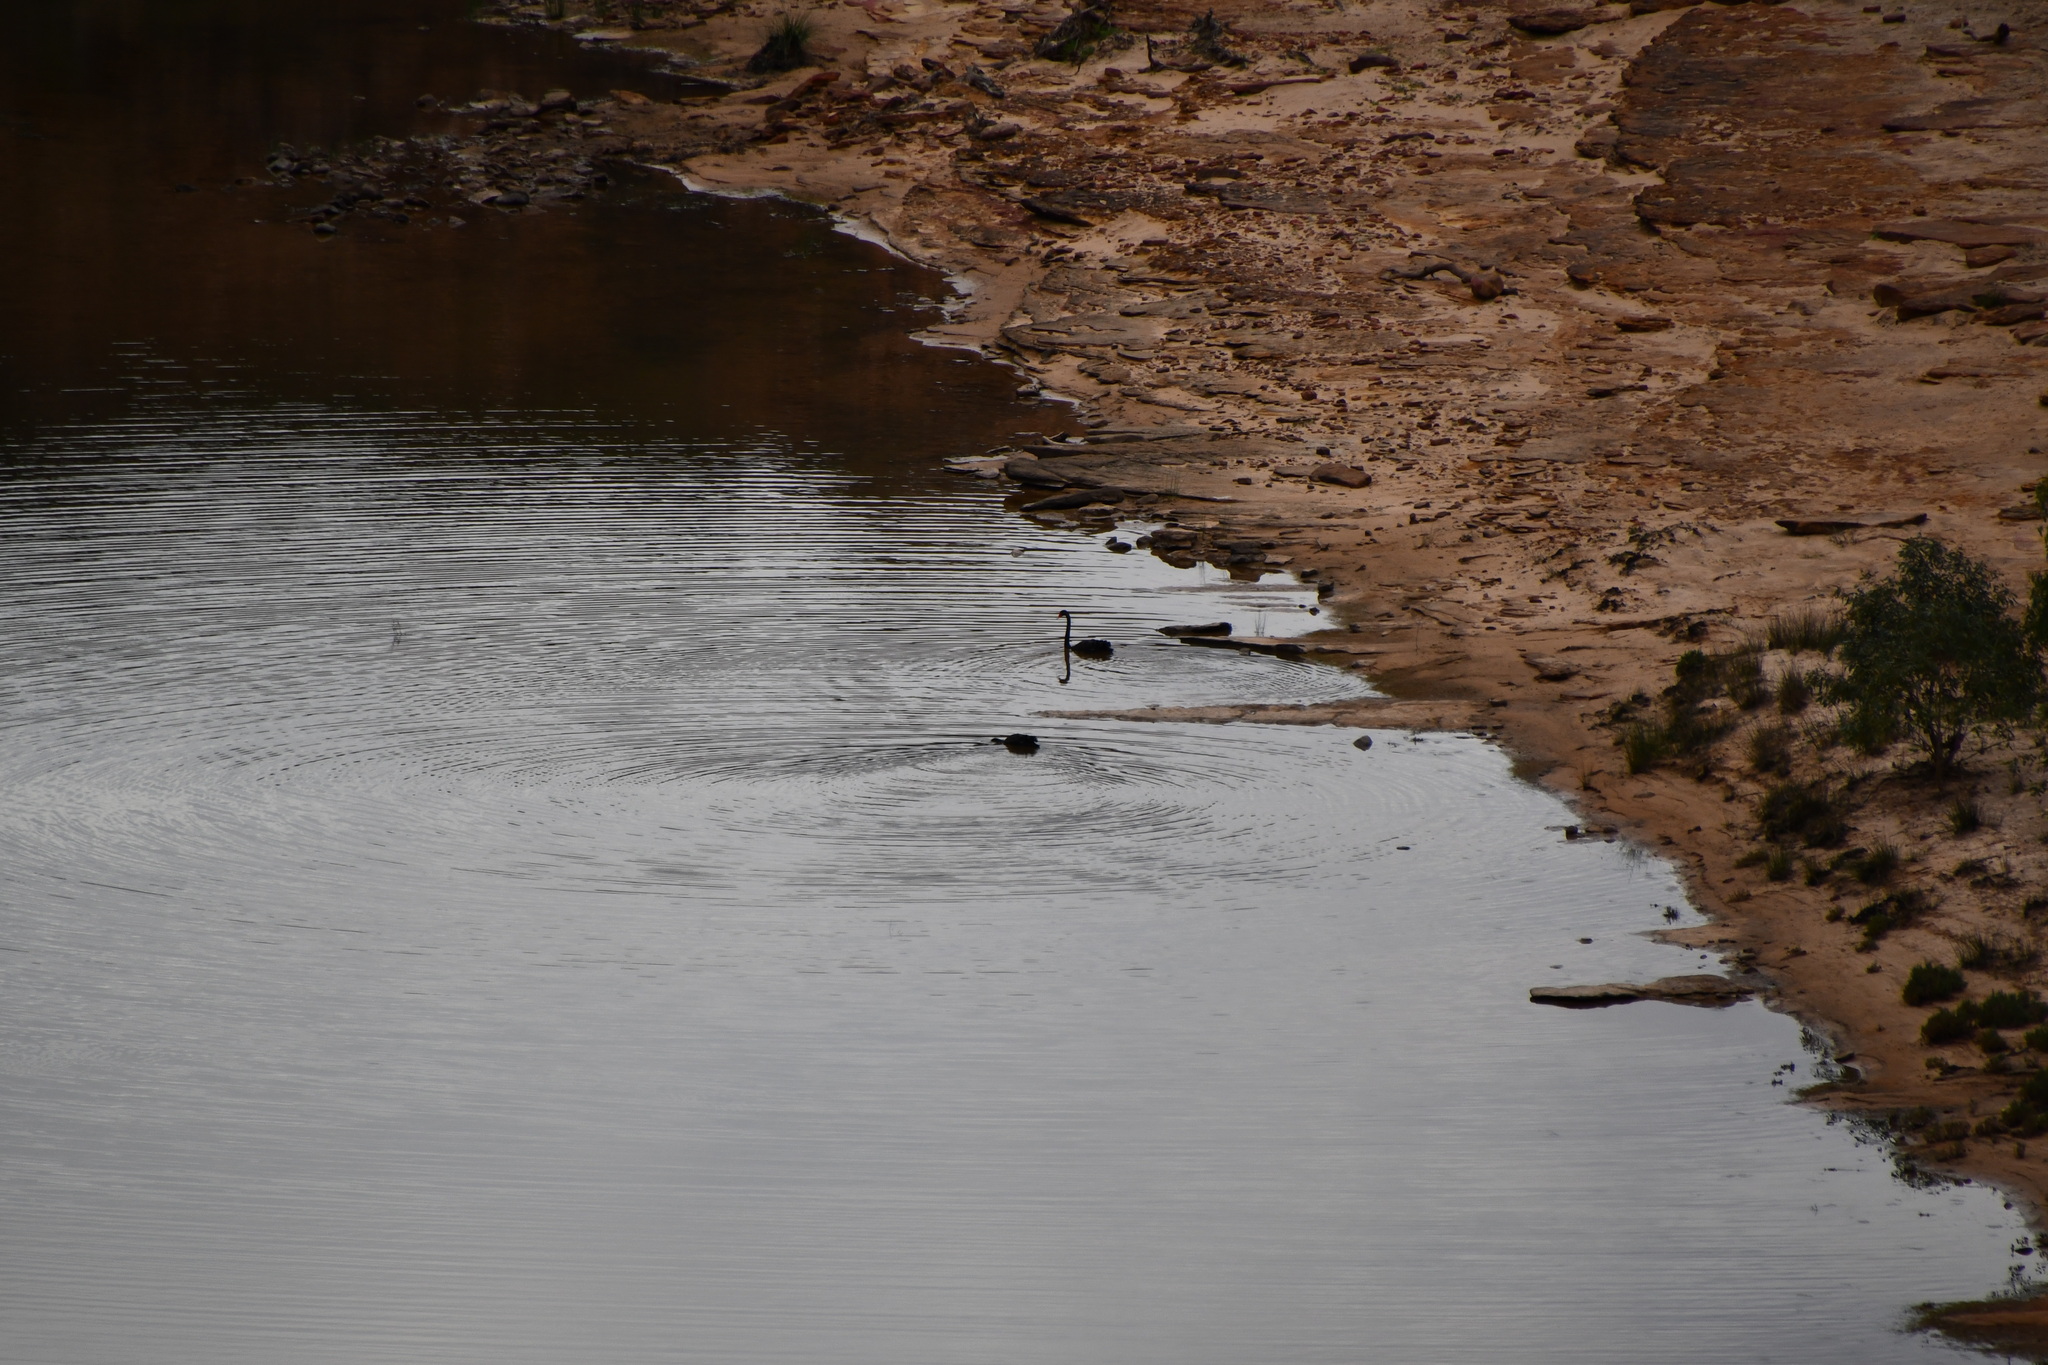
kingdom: Animalia
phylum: Chordata
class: Aves
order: Anseriformes
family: Anatidae
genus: Cygnus
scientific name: Cygnus atratus
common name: Black swan
